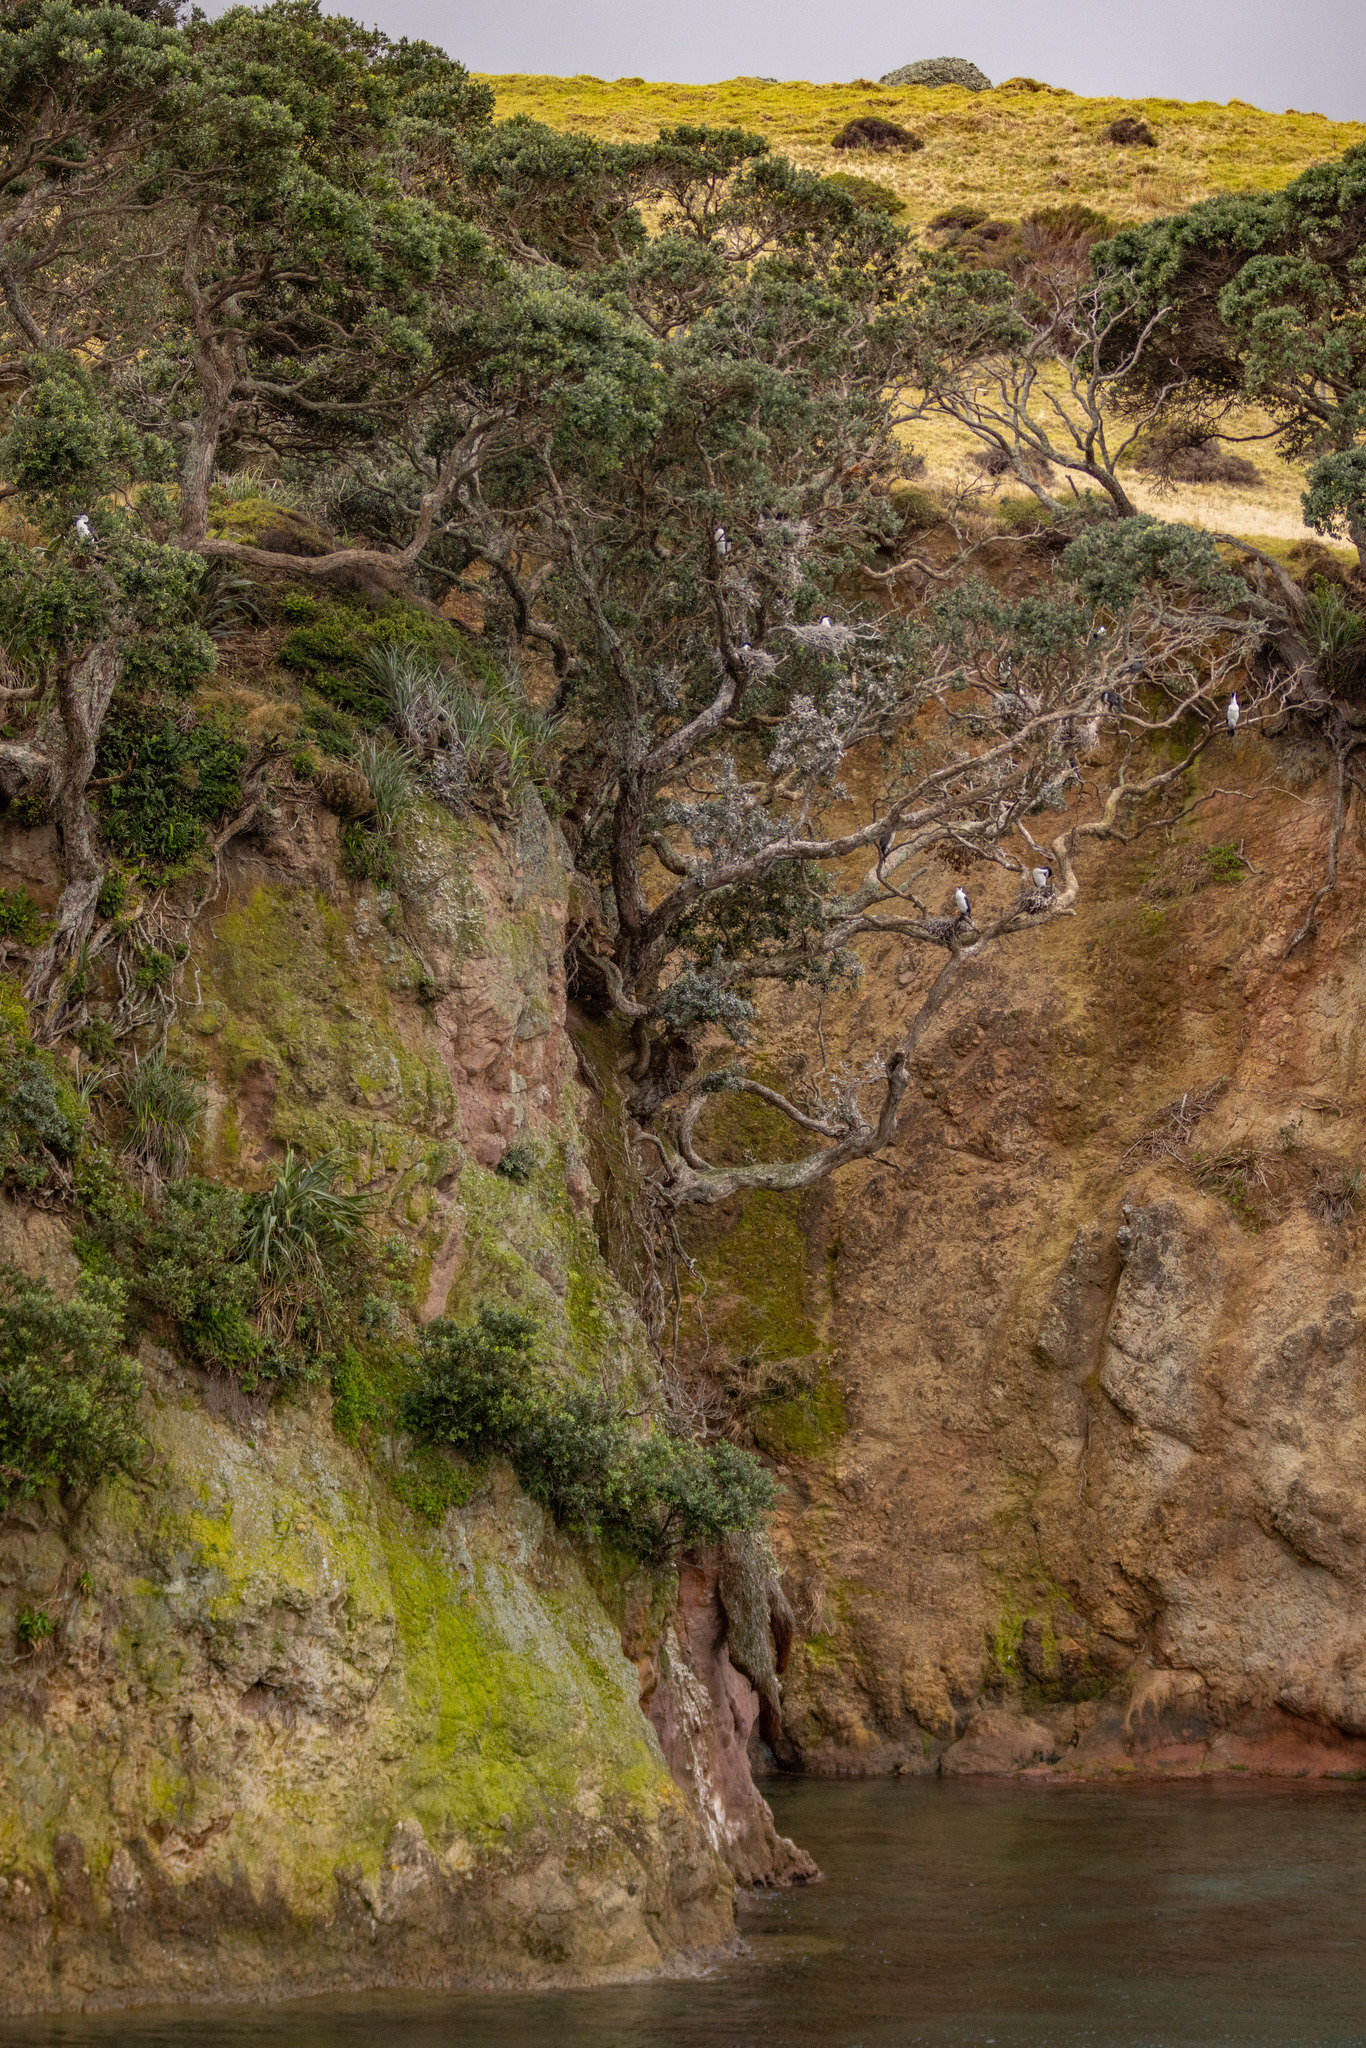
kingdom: Animalia
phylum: Chordata
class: Aves
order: Suliformes
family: Phalacrocoracidae
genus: Phalacrocorax
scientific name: Phalacrocorax varius
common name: Pied cormorant
